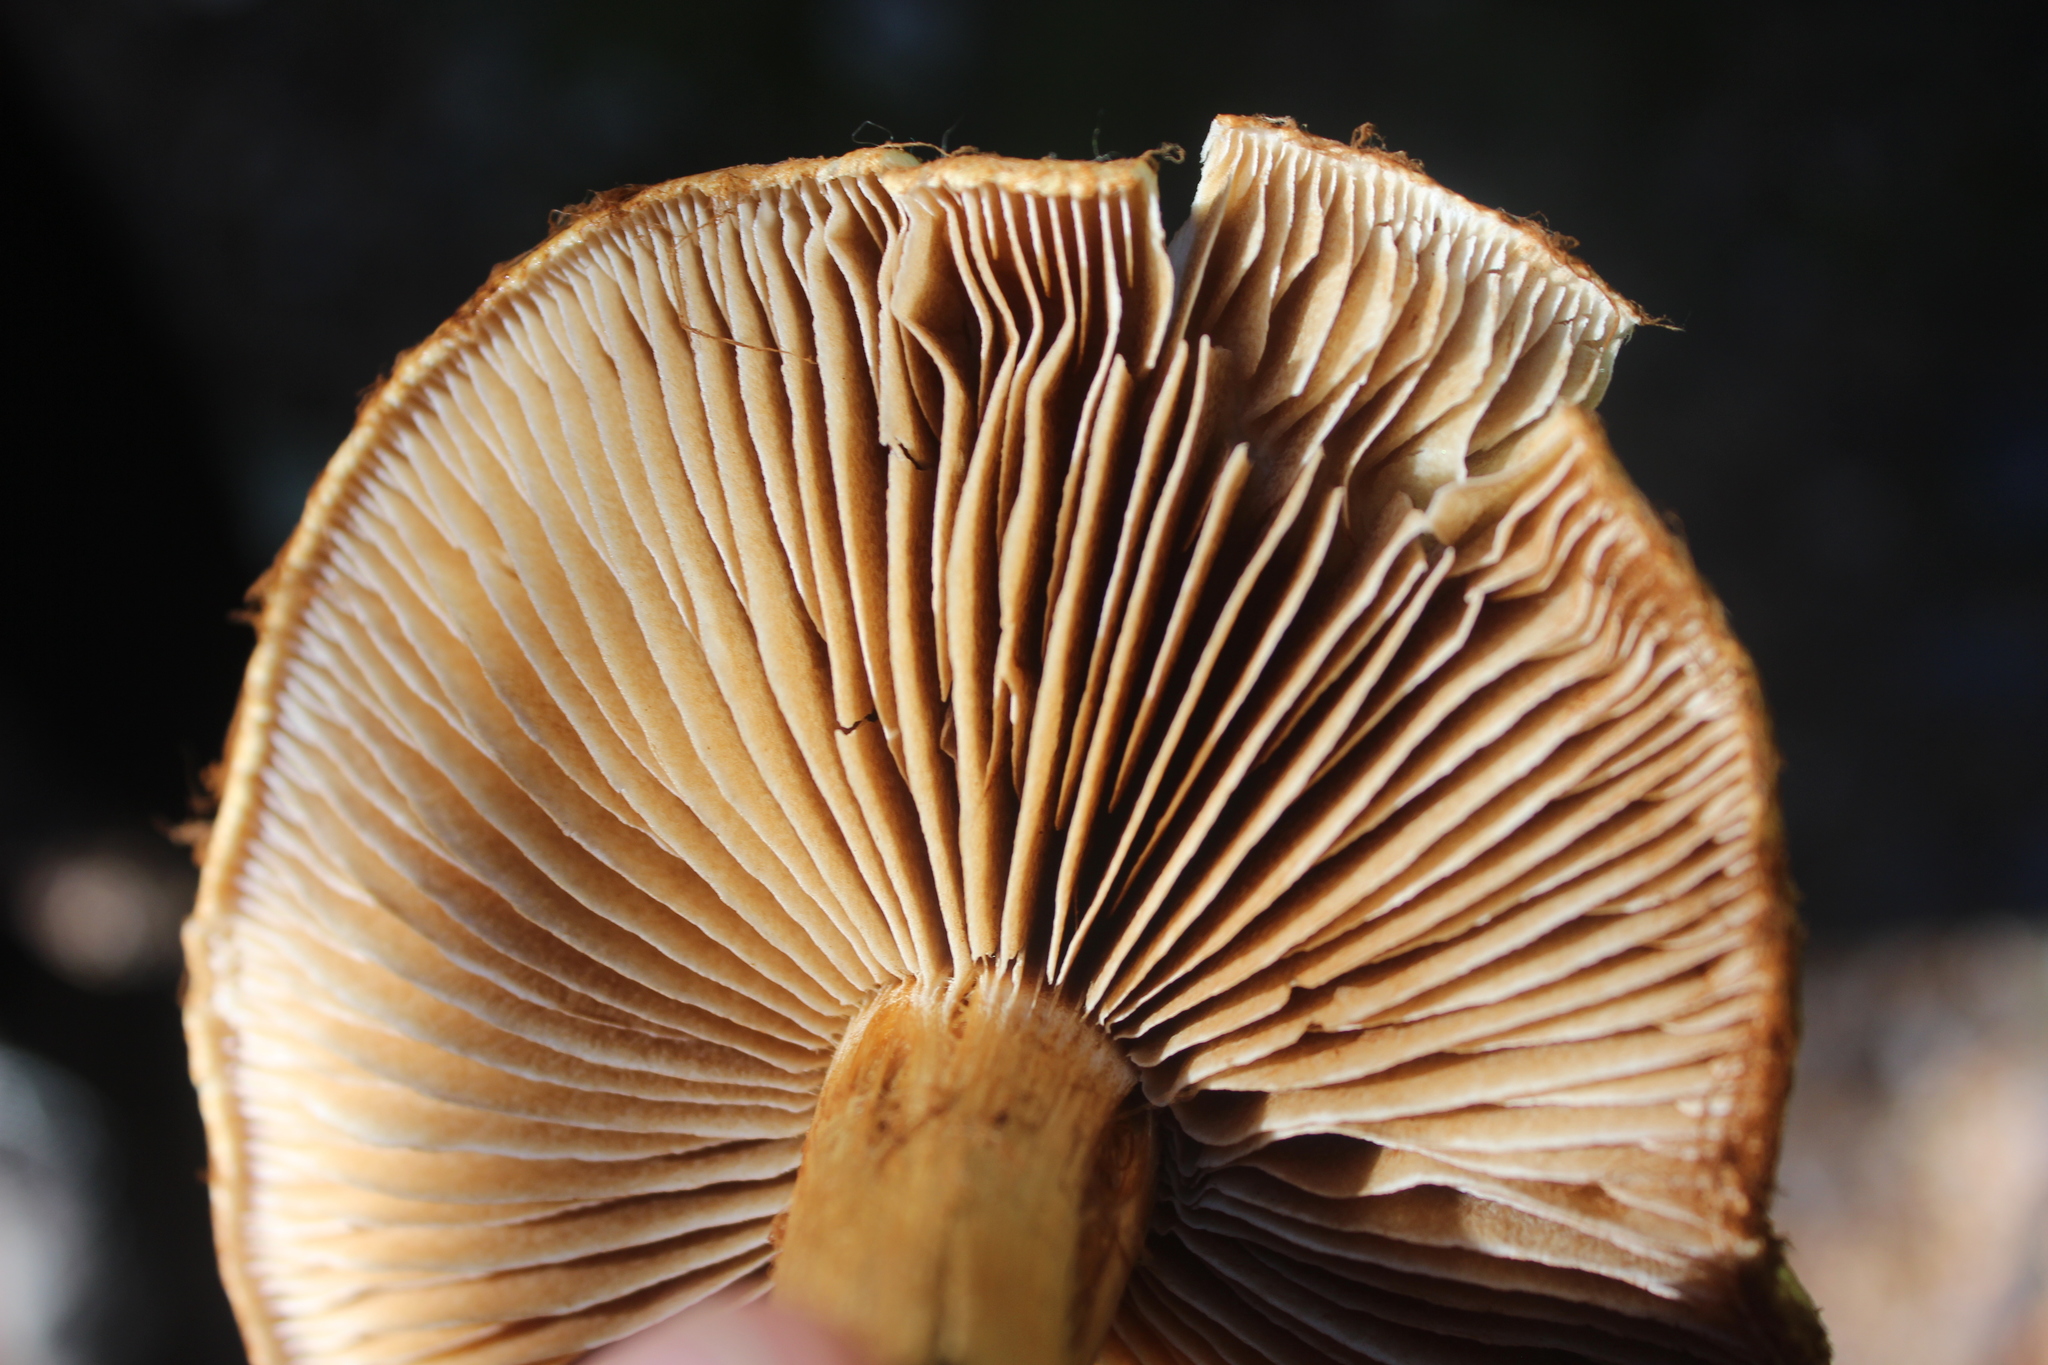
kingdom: Fungi
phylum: Basidiomycota
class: Agaricomycetes
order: Agaricales
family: Cortinariaceae
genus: Thaxterogaster
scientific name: Thaxterogaster castoreus
